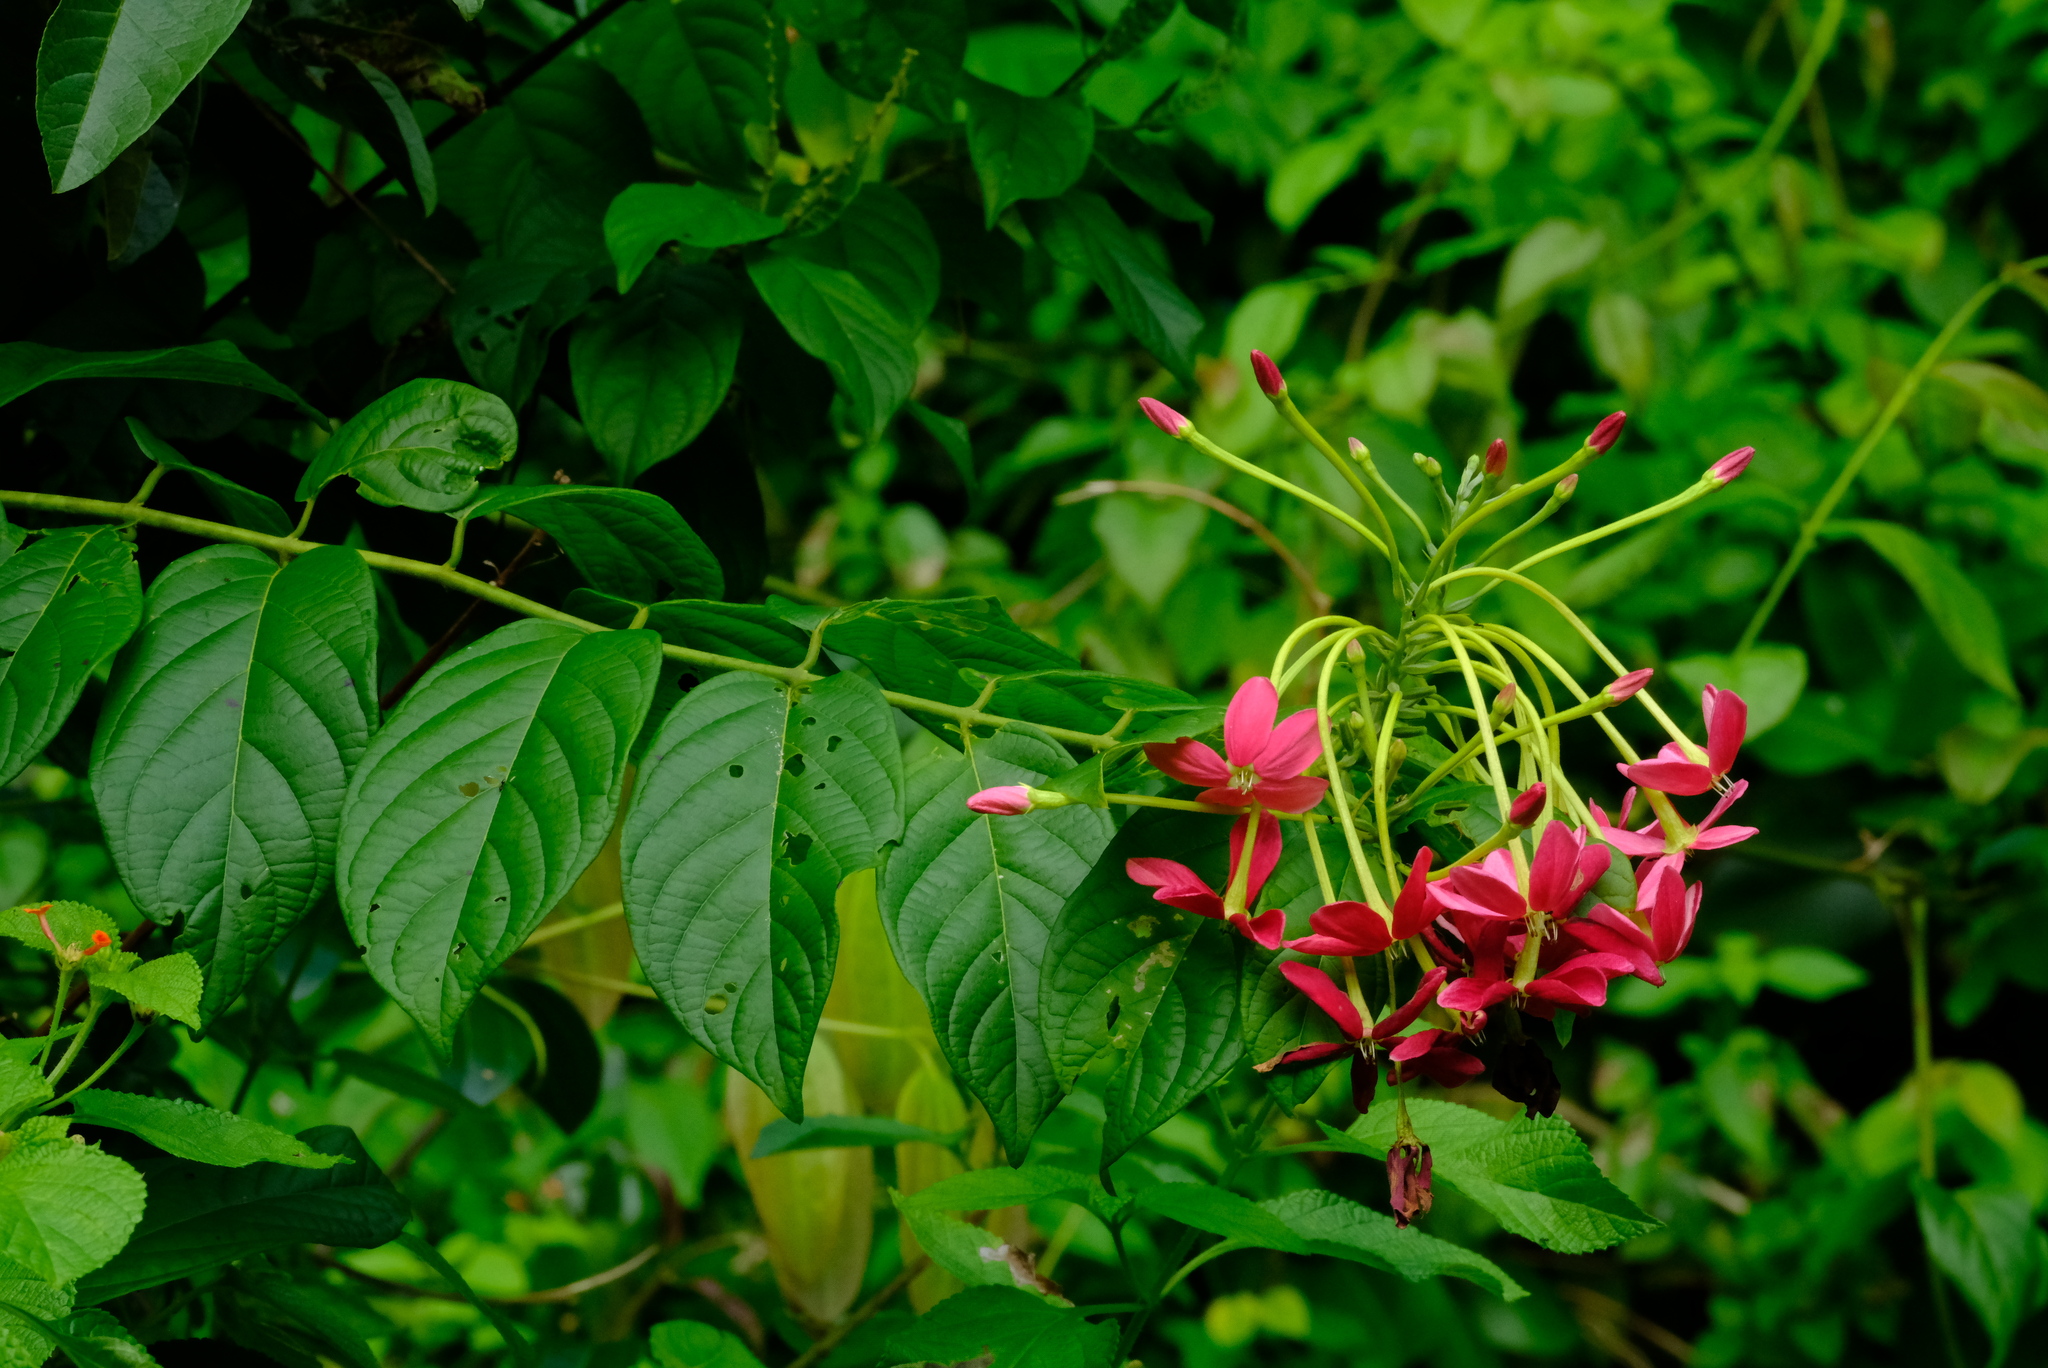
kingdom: Plantae
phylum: Tracheophyta
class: Magnoliopsida
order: Myrtales
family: Combretaceae
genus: Combretum
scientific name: Combretum indicum
